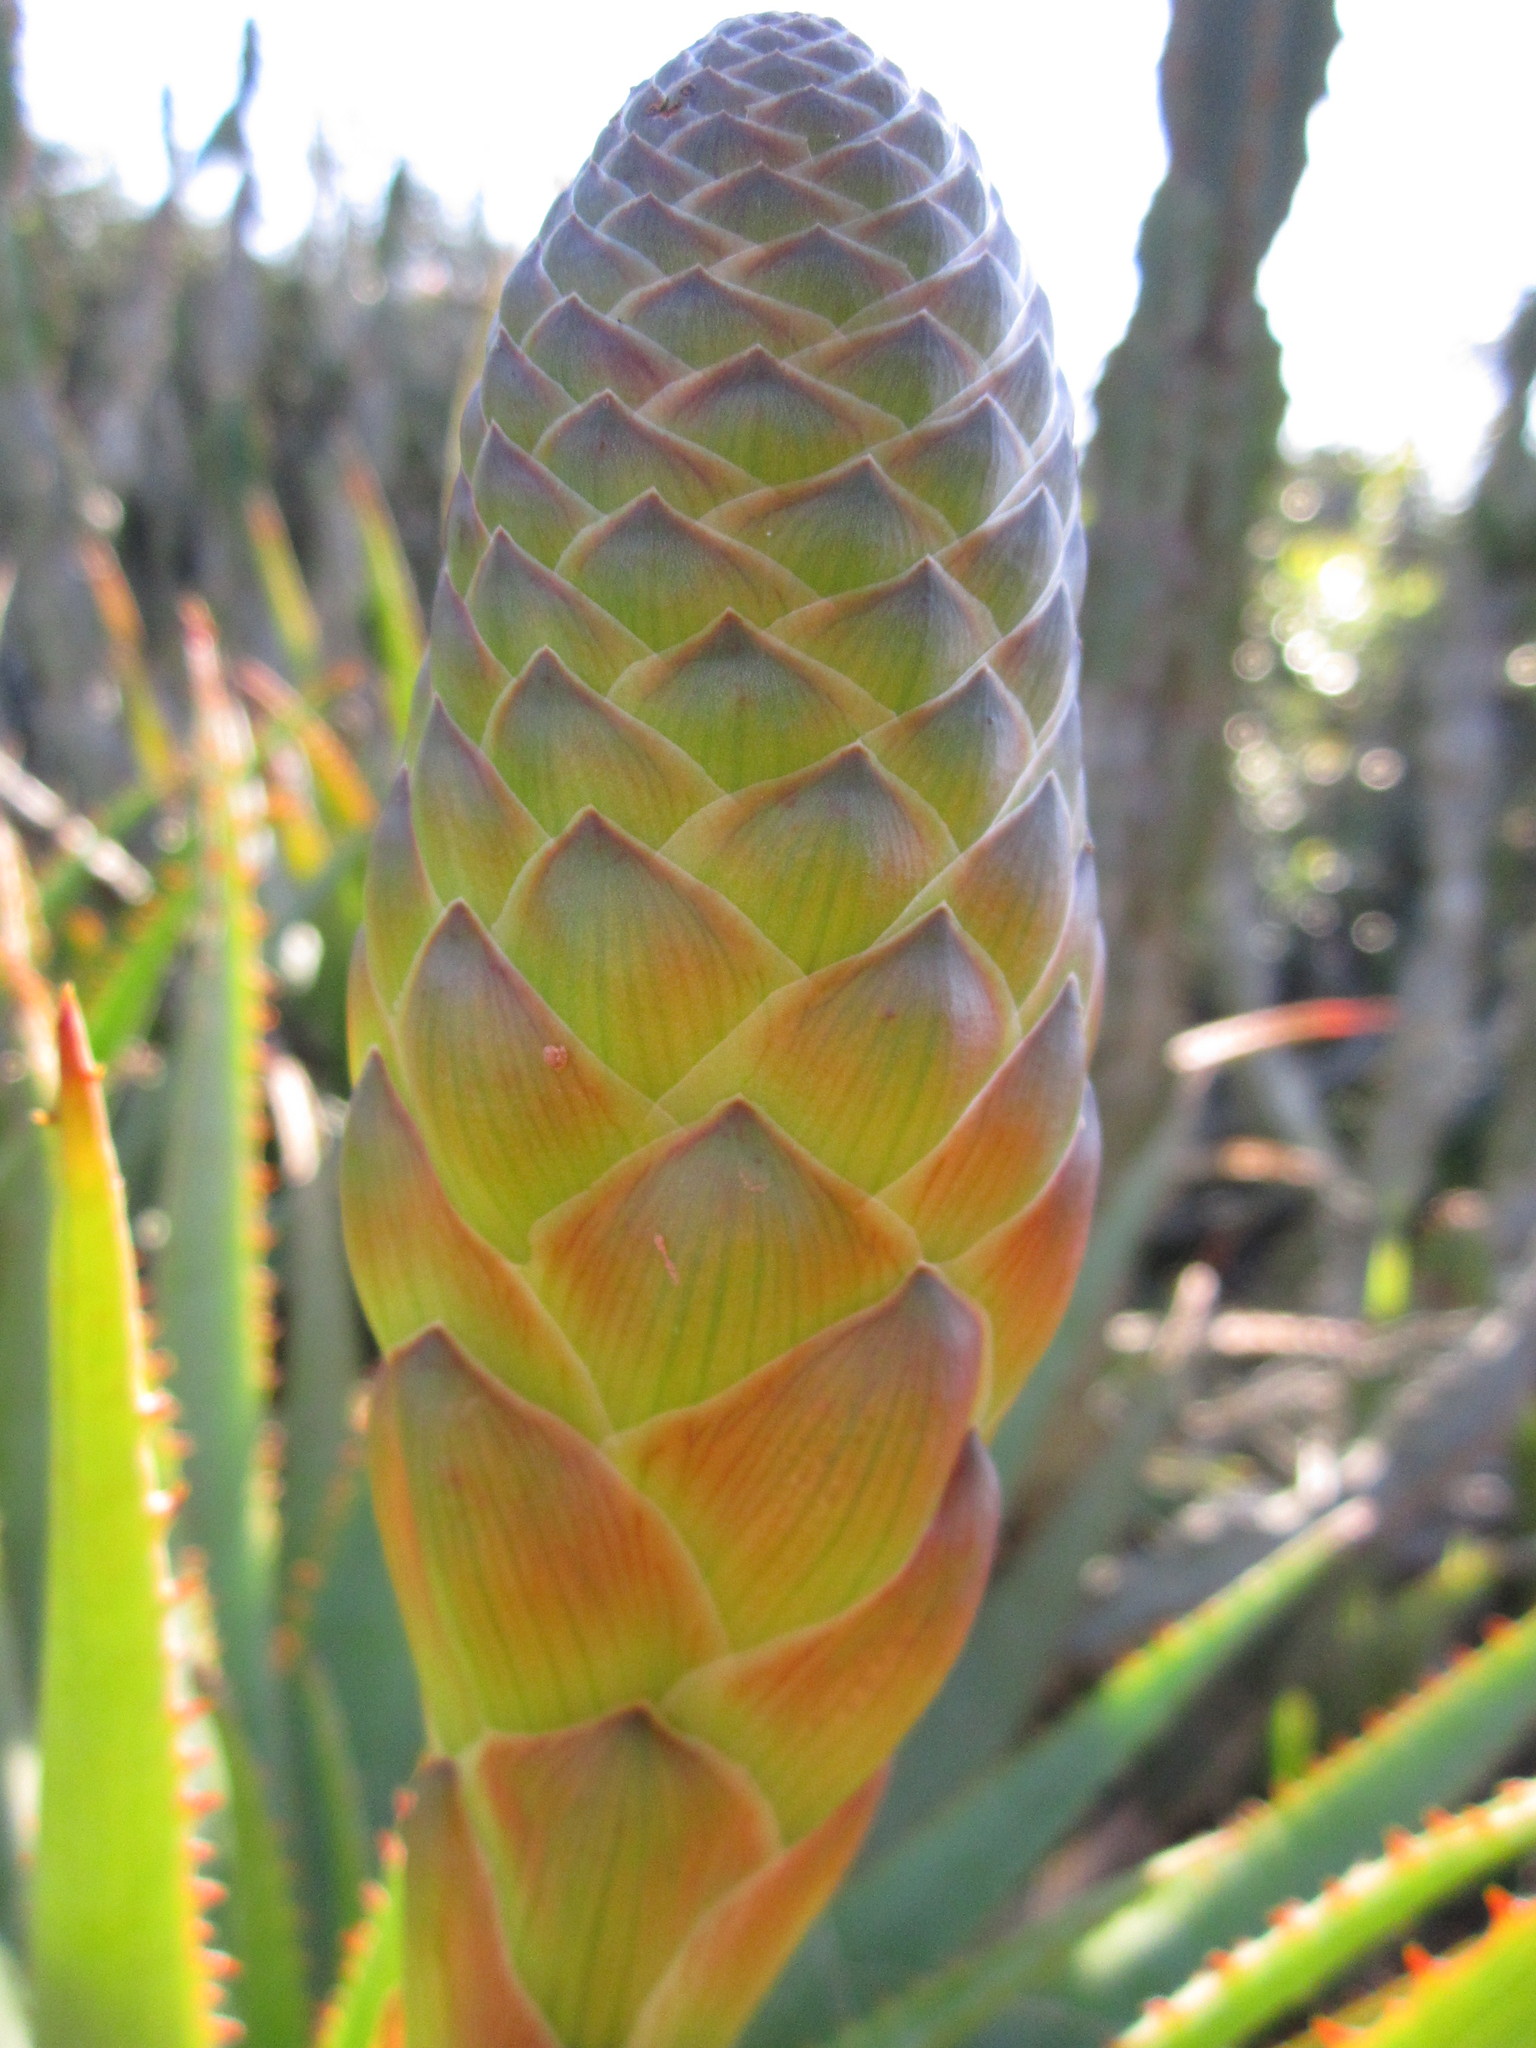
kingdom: Plantae
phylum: Tracheophyta
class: Liliopsida
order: Asparagales
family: Asphodelaceae
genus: Aloe
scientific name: Aloe lineata
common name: Lined red-spined aloe
